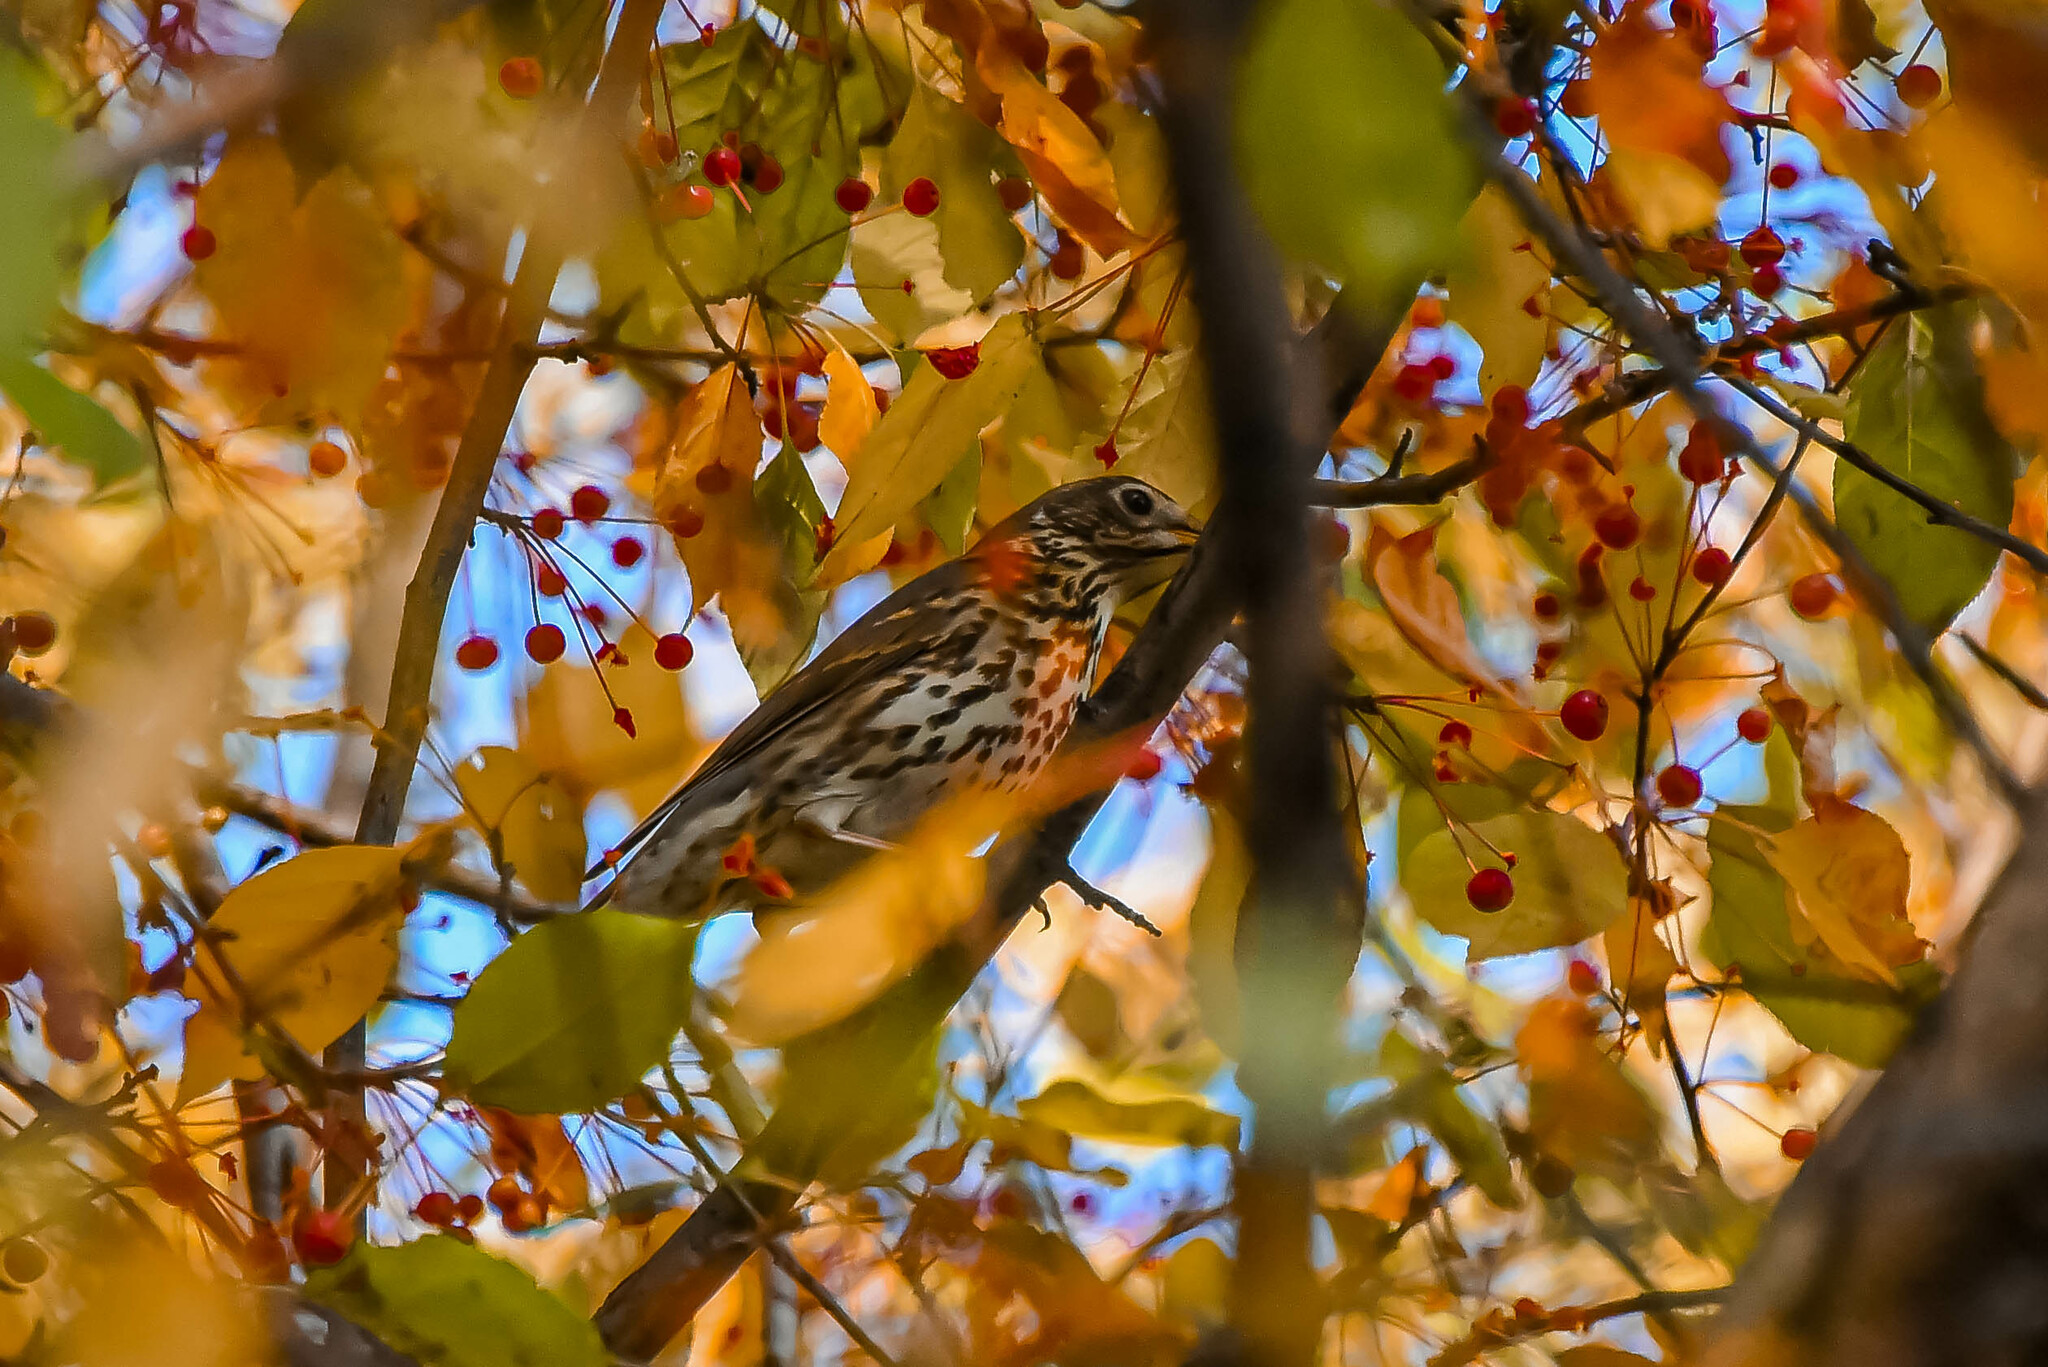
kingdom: Animalia
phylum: Chordata
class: Aves
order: Passeriformes
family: Turdidae
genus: Turdus
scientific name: Turdus philomelos
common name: Song thrush
